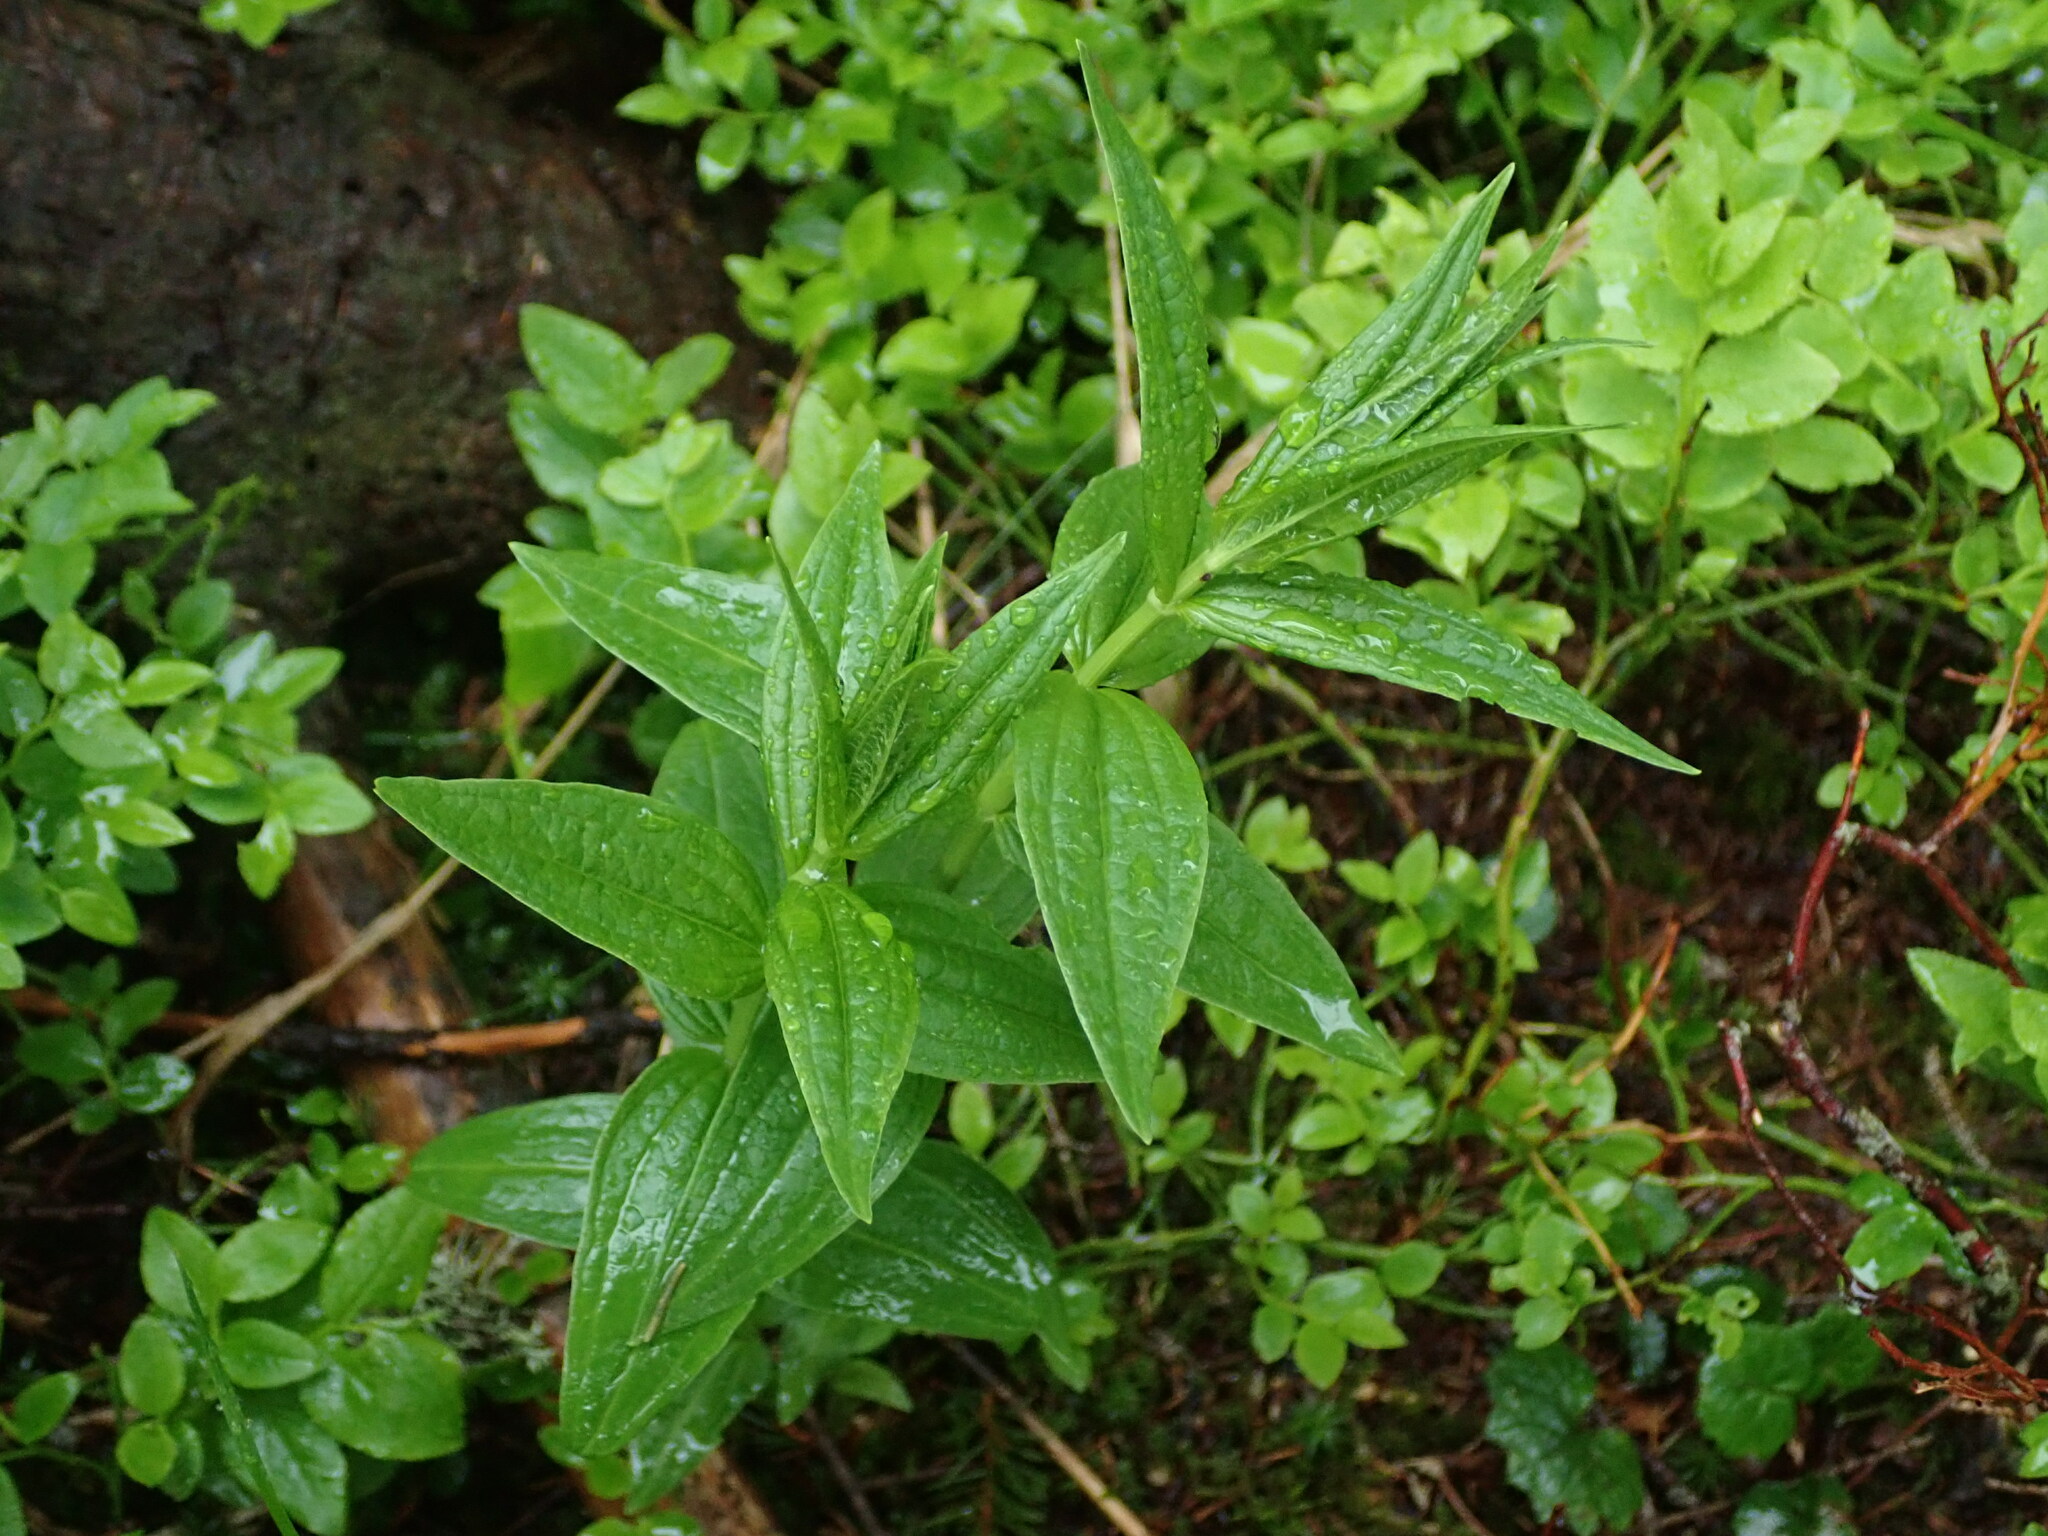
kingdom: Plantae
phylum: Tracheophyta
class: Magnoliopsida
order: Gentianales
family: Gentianaceae
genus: Gentiana
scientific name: Gentiana asclepiadea
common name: Willow gentian
